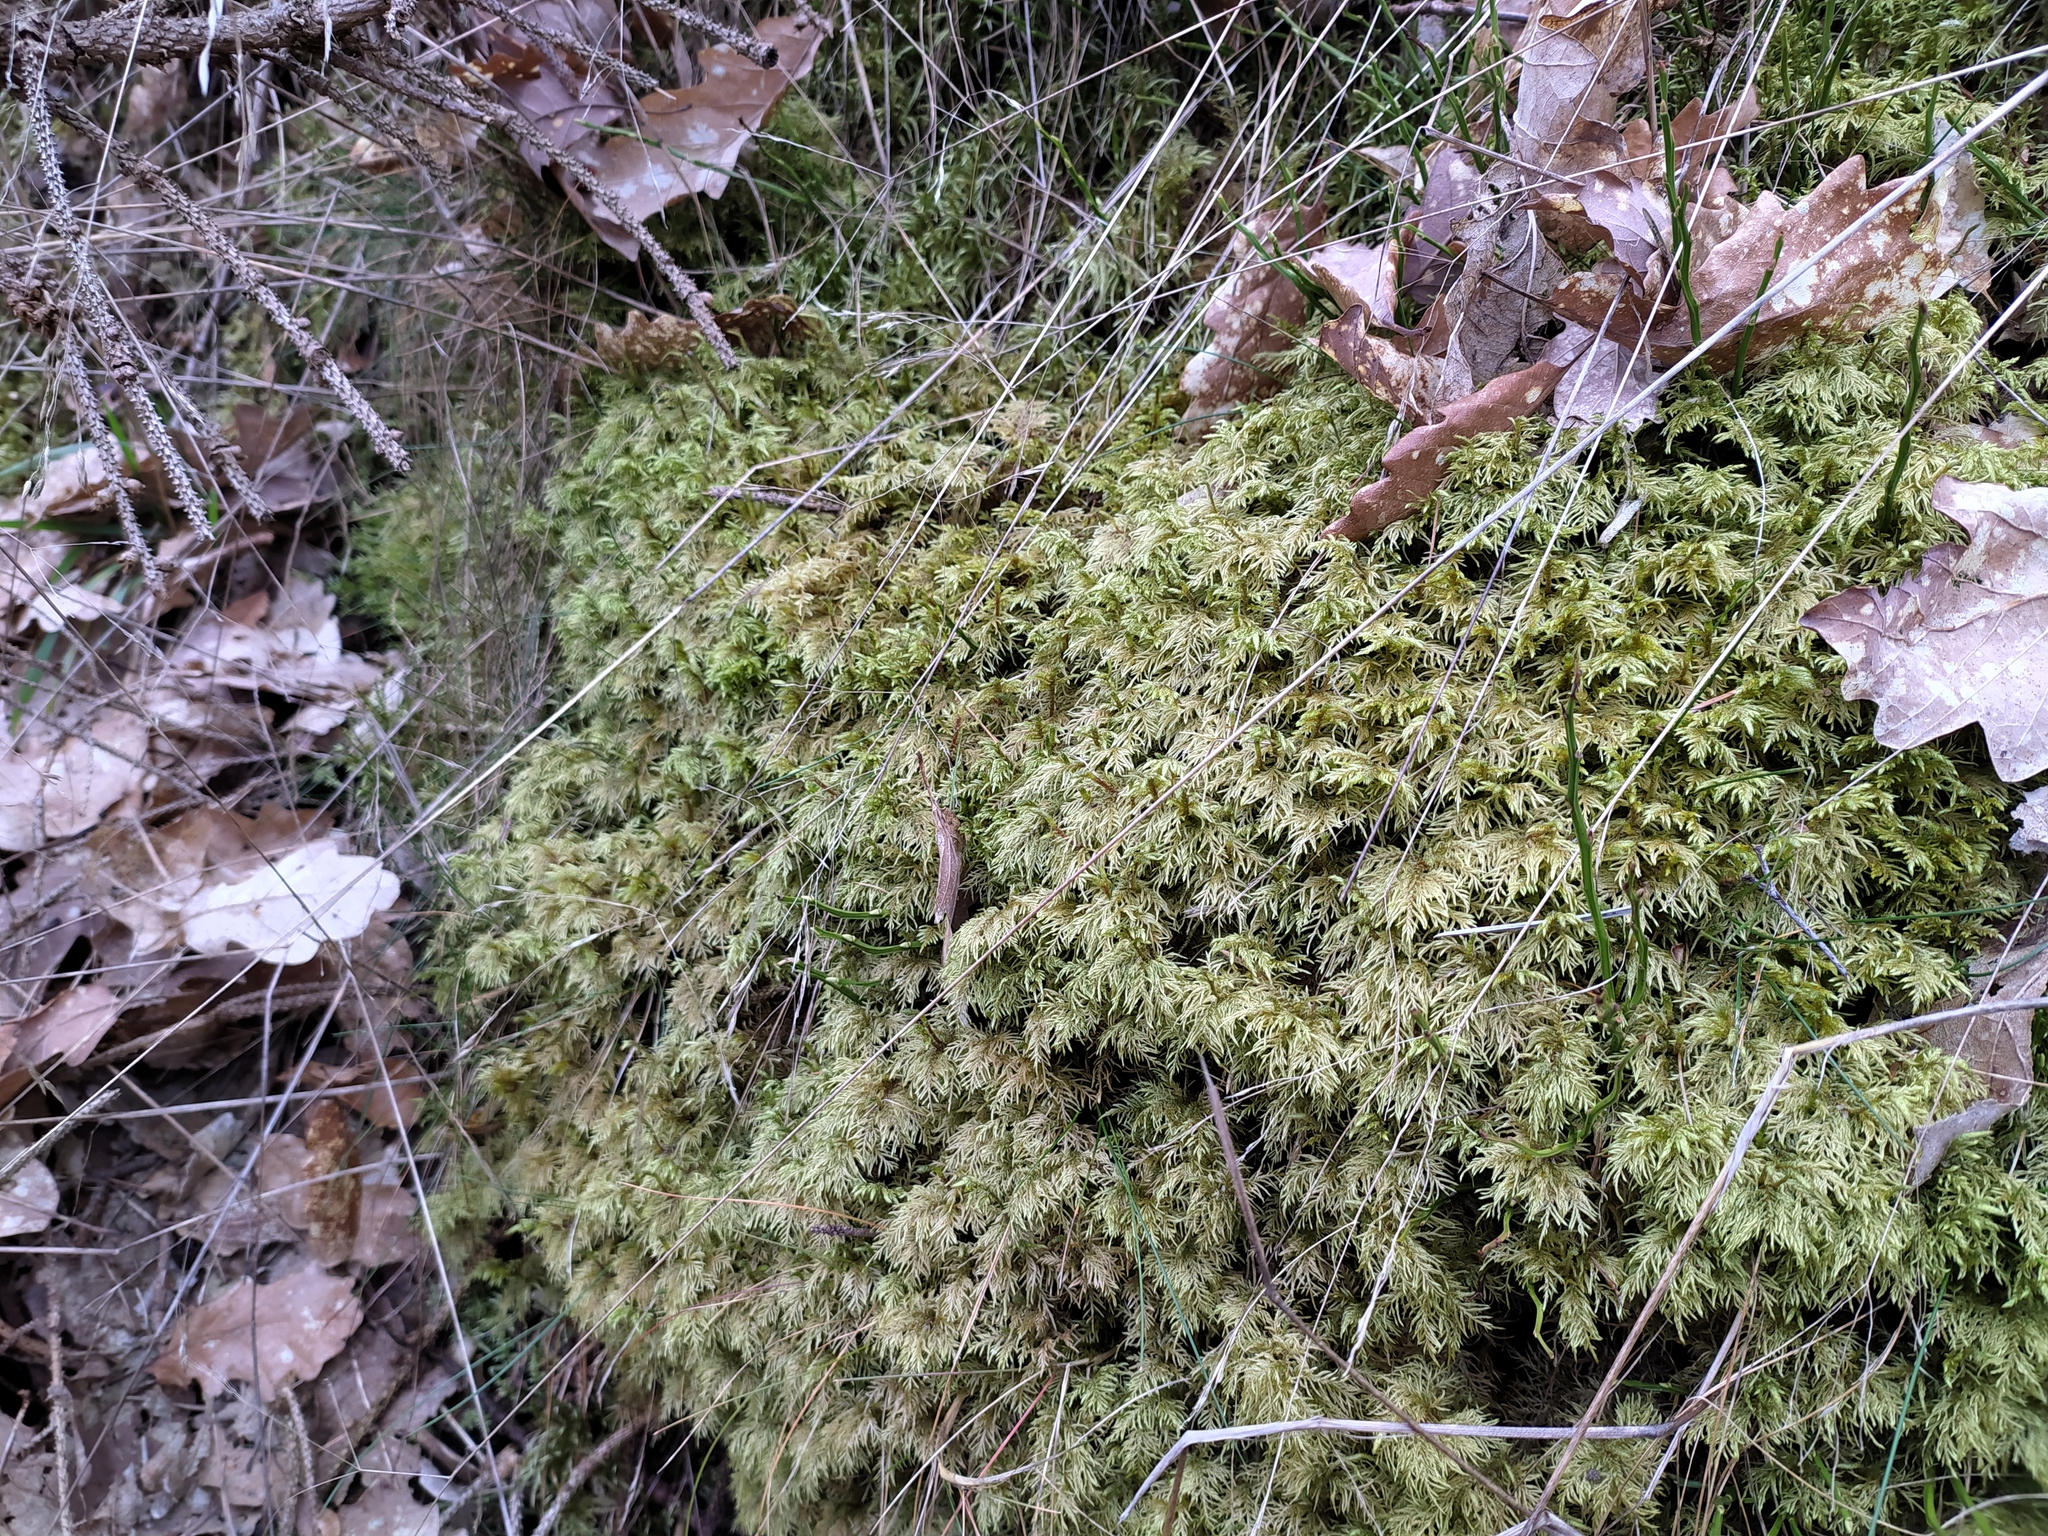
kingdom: Plantae
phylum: Bryophyta
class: Bryopsida
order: Hypnales
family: Hylocomiaceae
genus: Hylocomium
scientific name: Hylocomium splendens
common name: Stairstep moss
